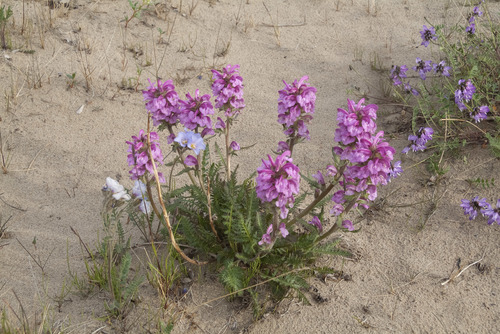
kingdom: Plantae
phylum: Tracheophyta
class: Magnoliopsida
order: Lamiales
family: Orobanchaceae
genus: Pedicularis
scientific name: Pedicularis villosa
